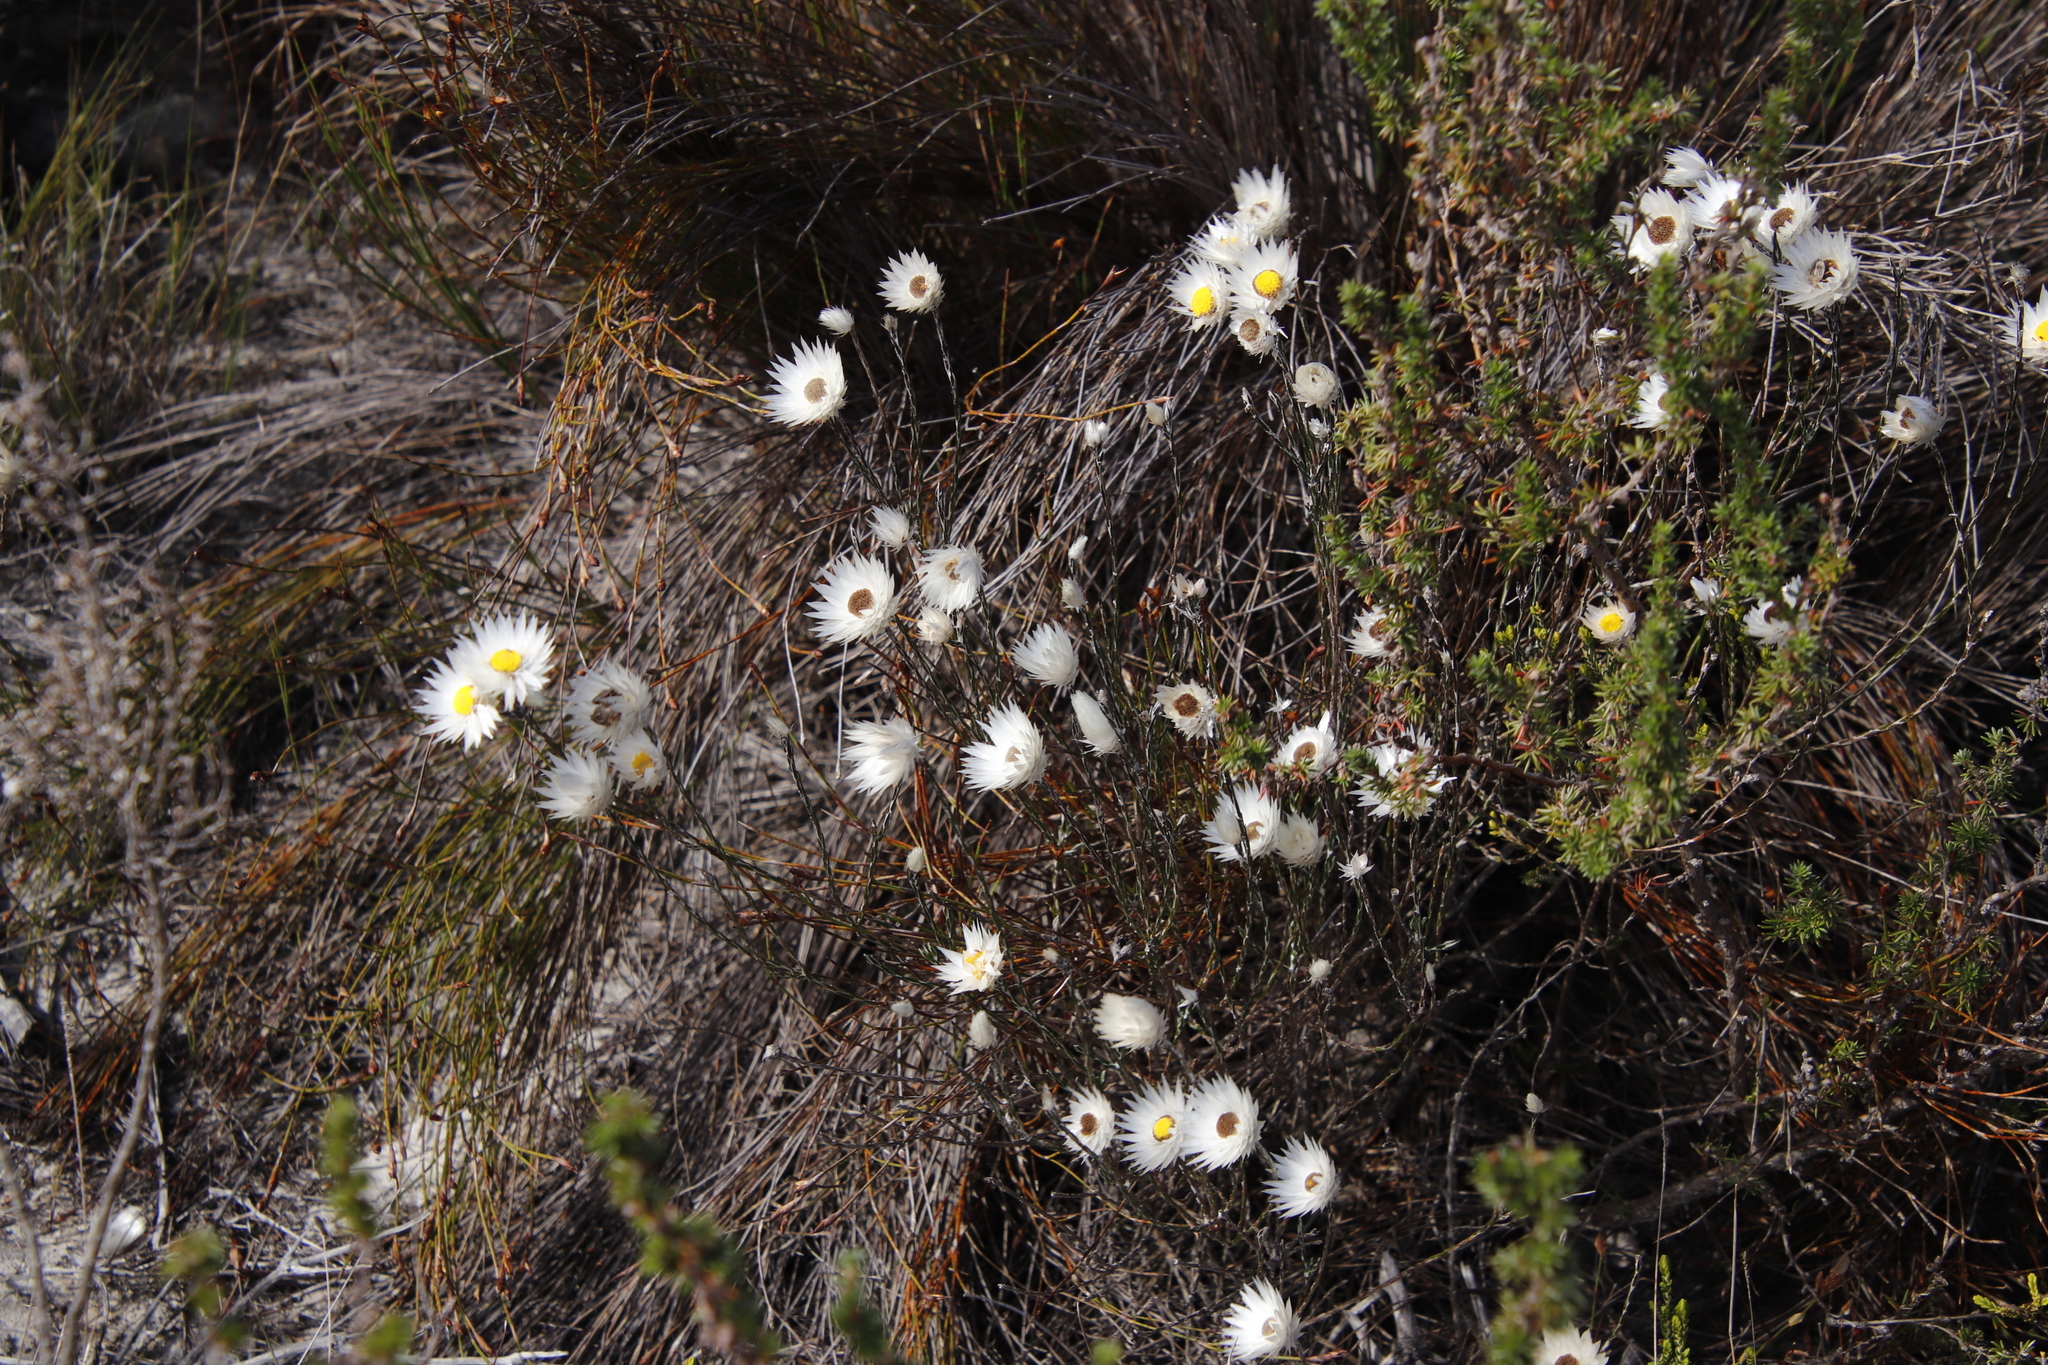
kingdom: Plantae
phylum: Tracheophyta
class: Magnoliopsida
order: Asterales
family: Asteraceae
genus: Edmondia
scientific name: Edmondia sesamoides
